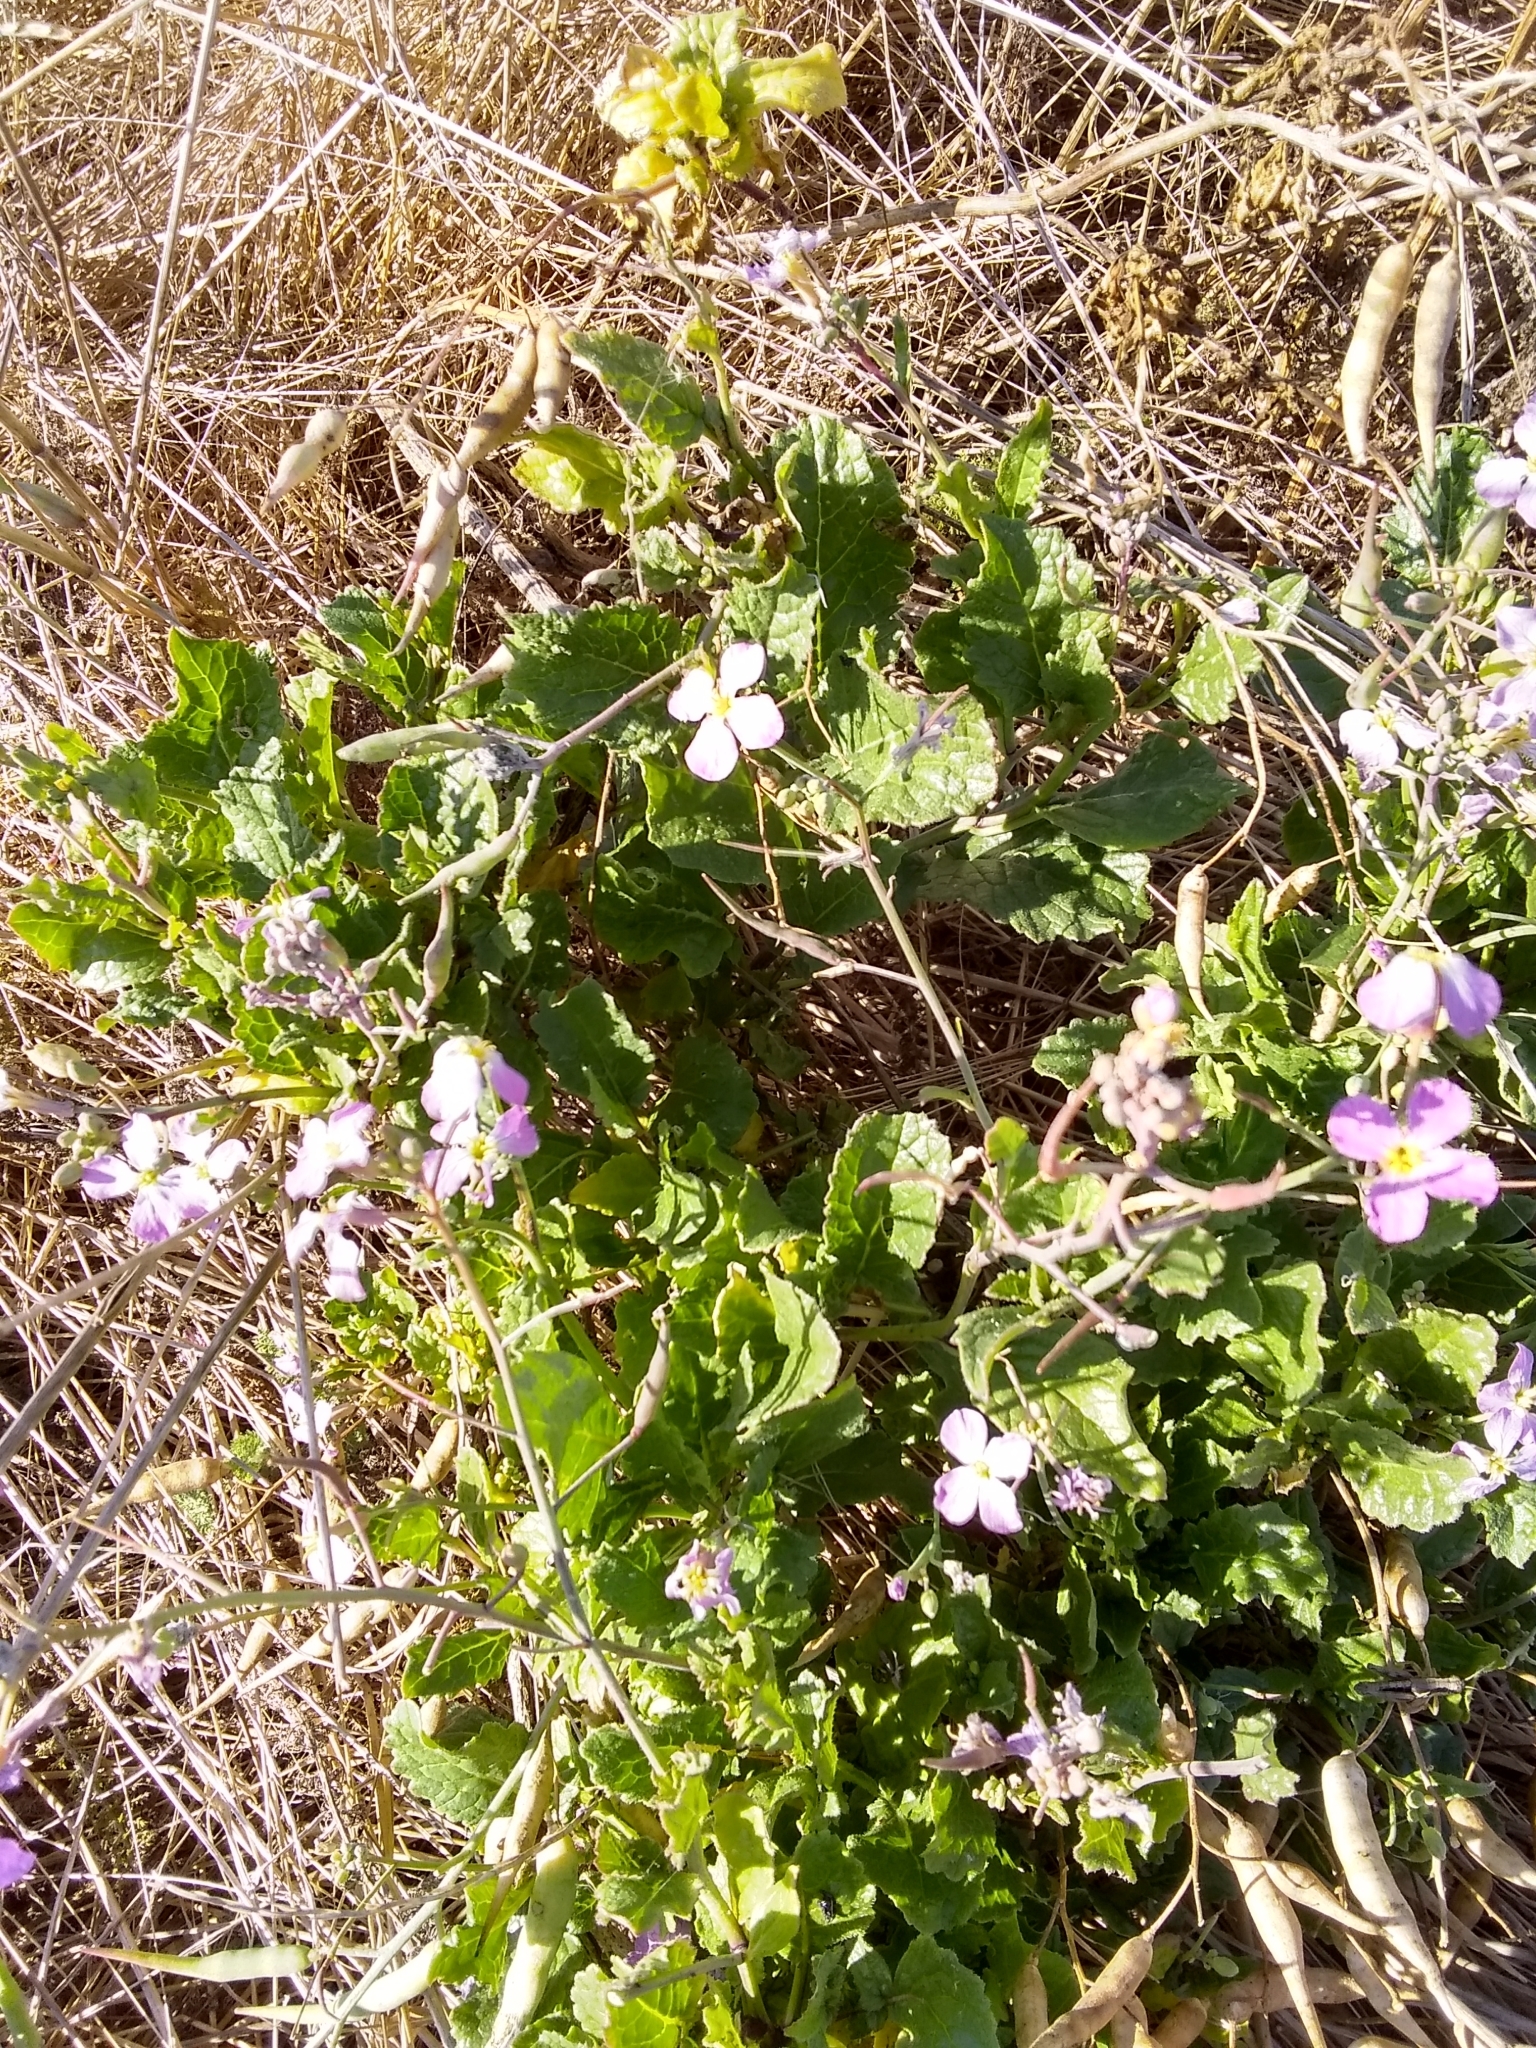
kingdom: Plantae
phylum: Tracheophyta
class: Magnoliopsida
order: Brassicales
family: Brassicaceae
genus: Raphanus
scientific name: Raphanus sativus
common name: Cultivated radish
